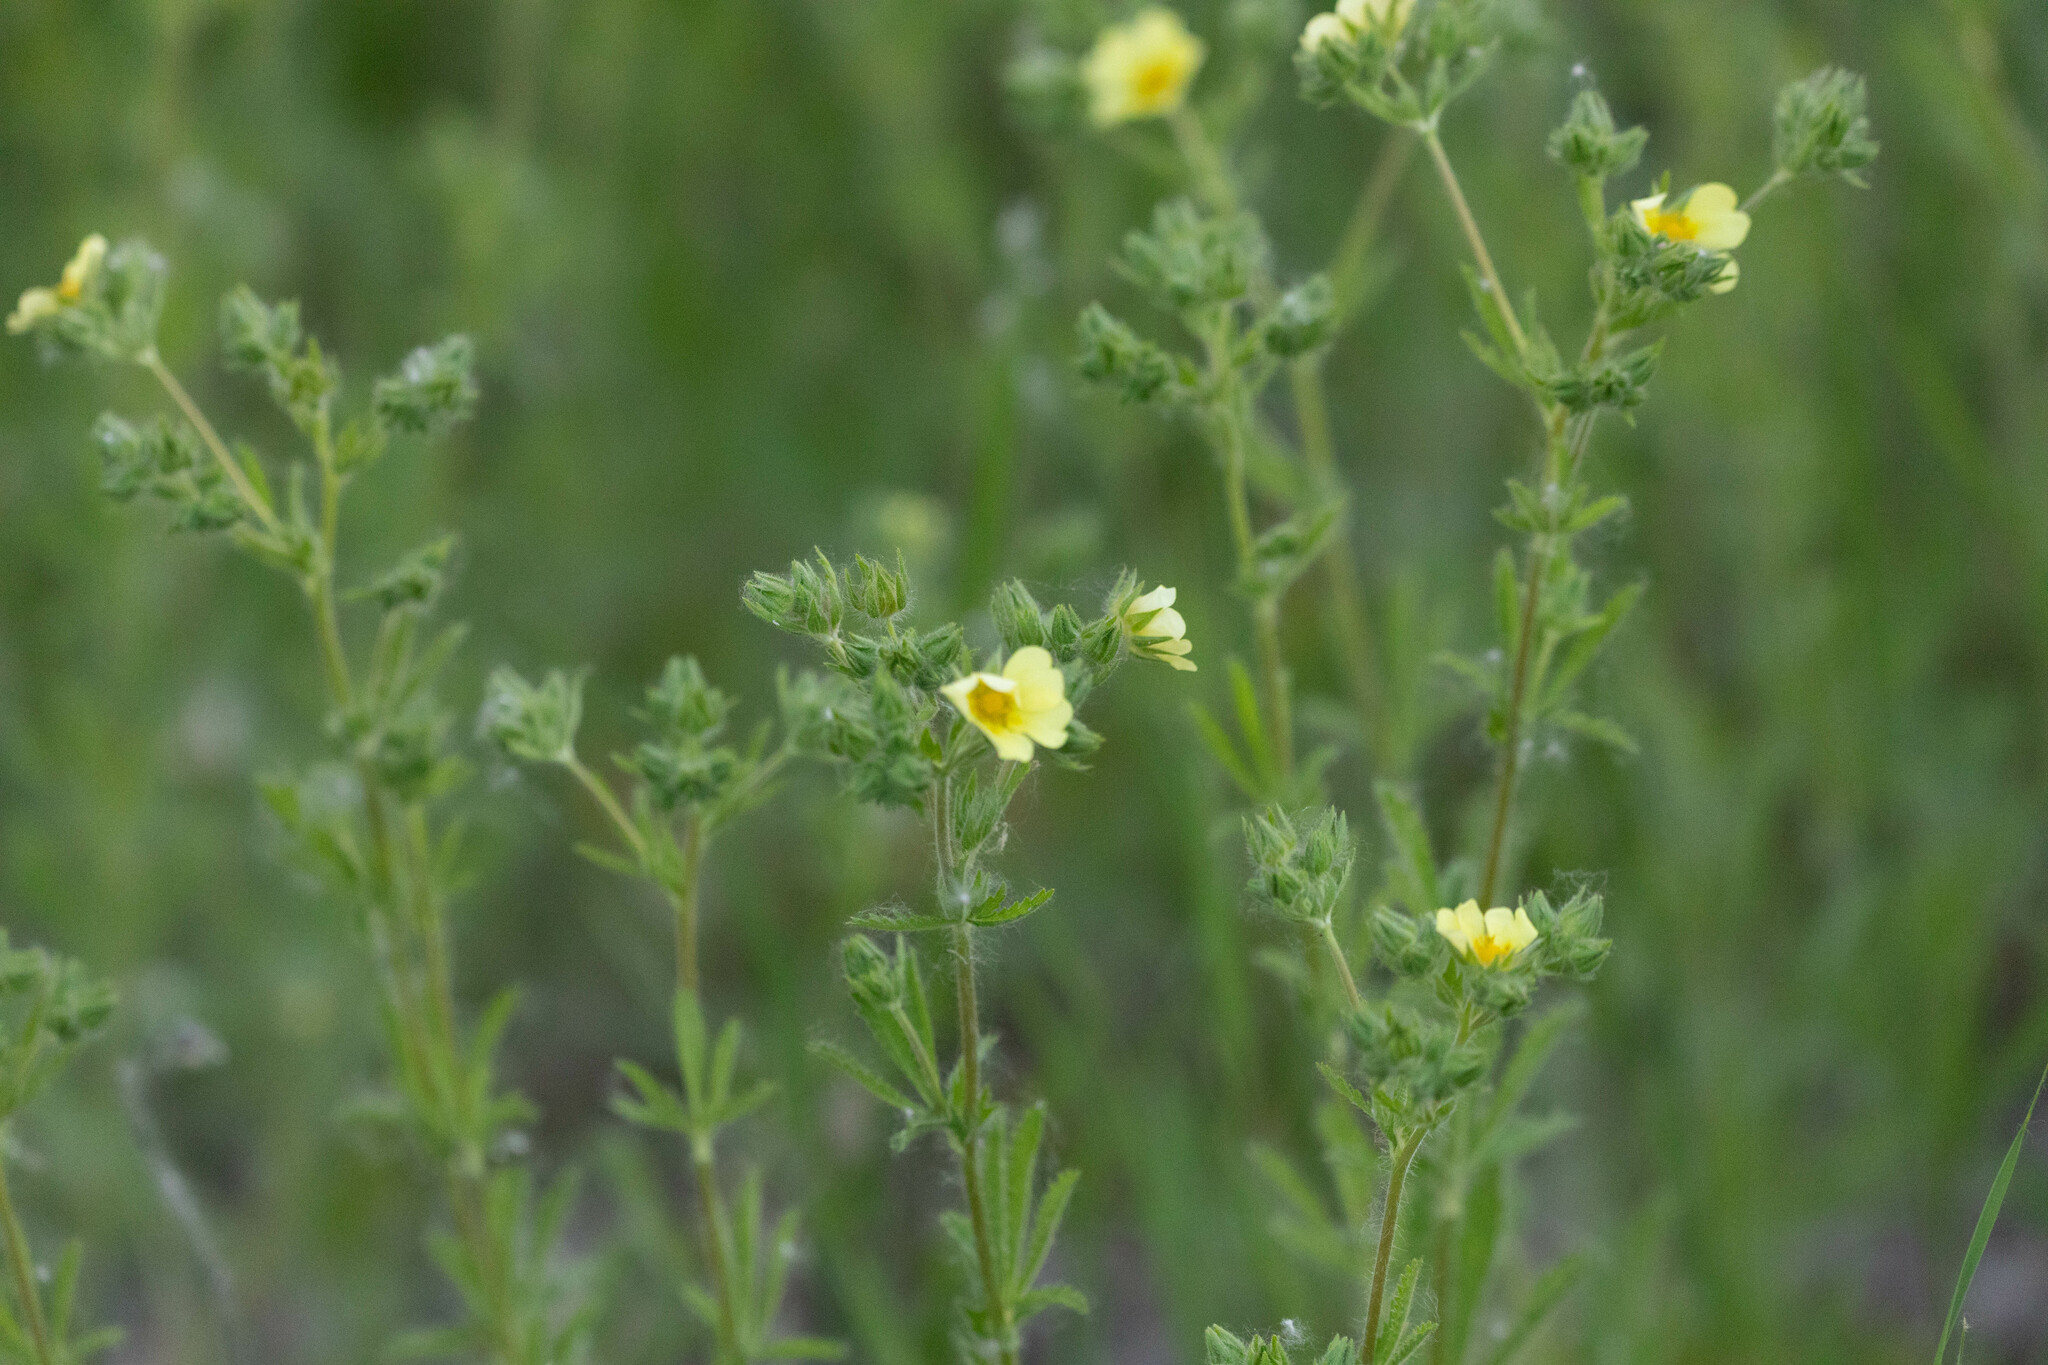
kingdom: Plantae
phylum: Tracheophyta
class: Magnoliopsida
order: Rosales
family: Rosaceae
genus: Potentilla
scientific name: Potentilla recta
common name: Sulphur cinquefoil
